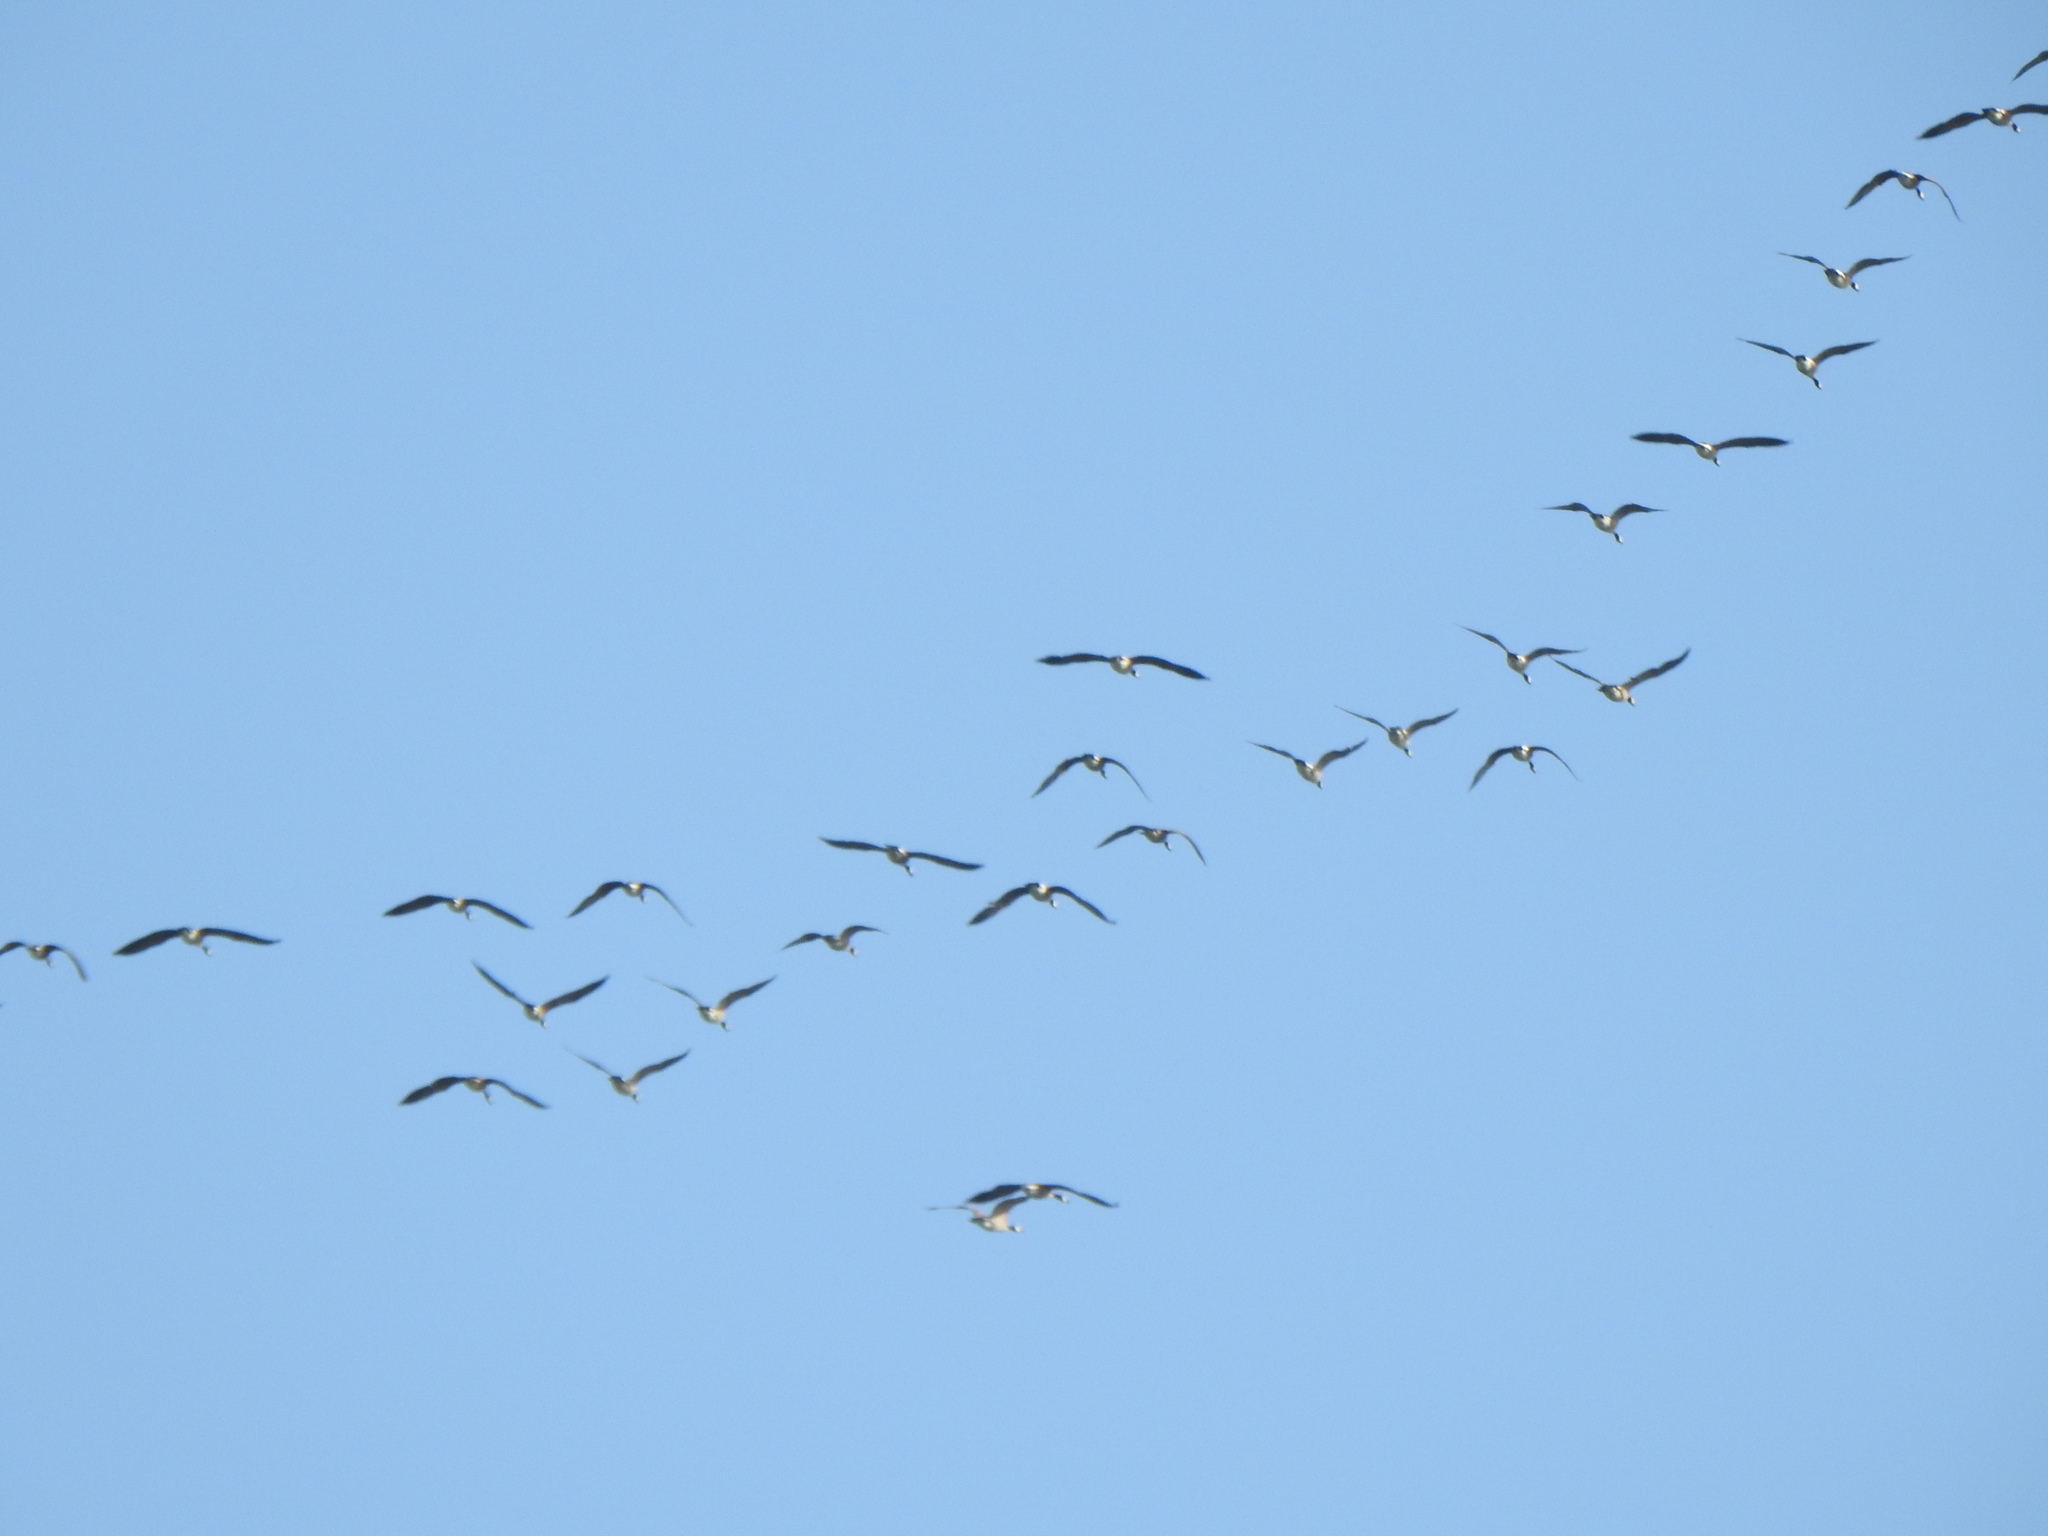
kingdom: Animalia
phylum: Chordata
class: Aves
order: Anseriformes
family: Anatidae
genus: Branta
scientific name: Branta canadensis
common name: Canada goose
